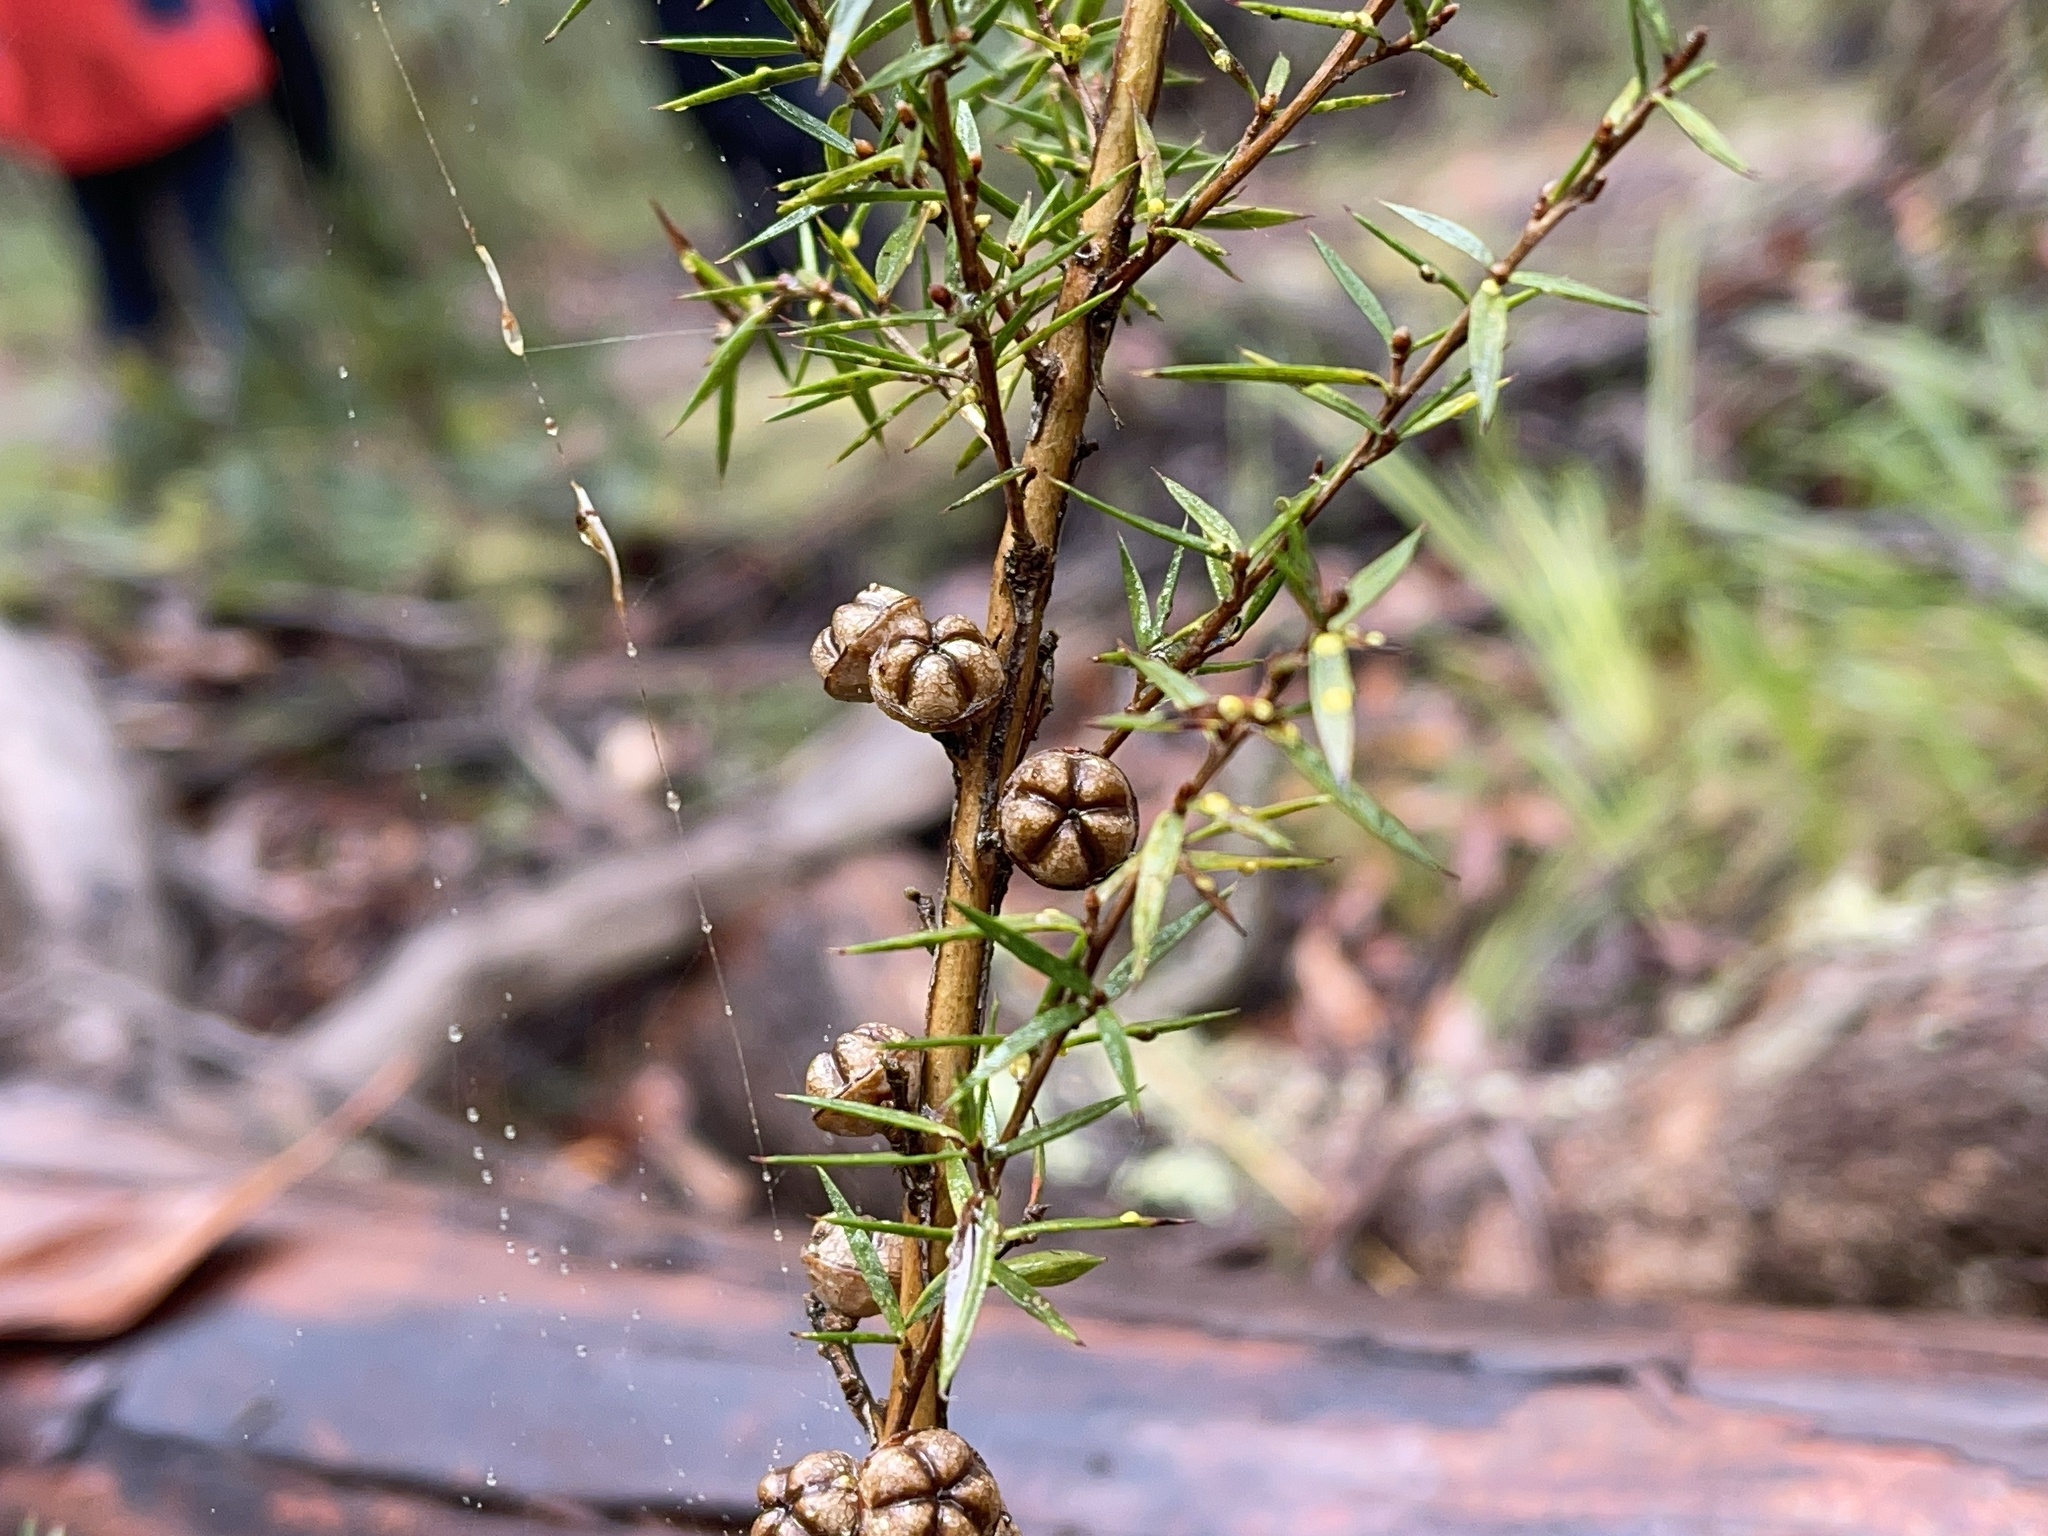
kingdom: Plantae
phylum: Tracheophyta
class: Magnoliopsida
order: Myrtales
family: Myrtaceae
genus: Leptospermum
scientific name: Leptospermum continentale
